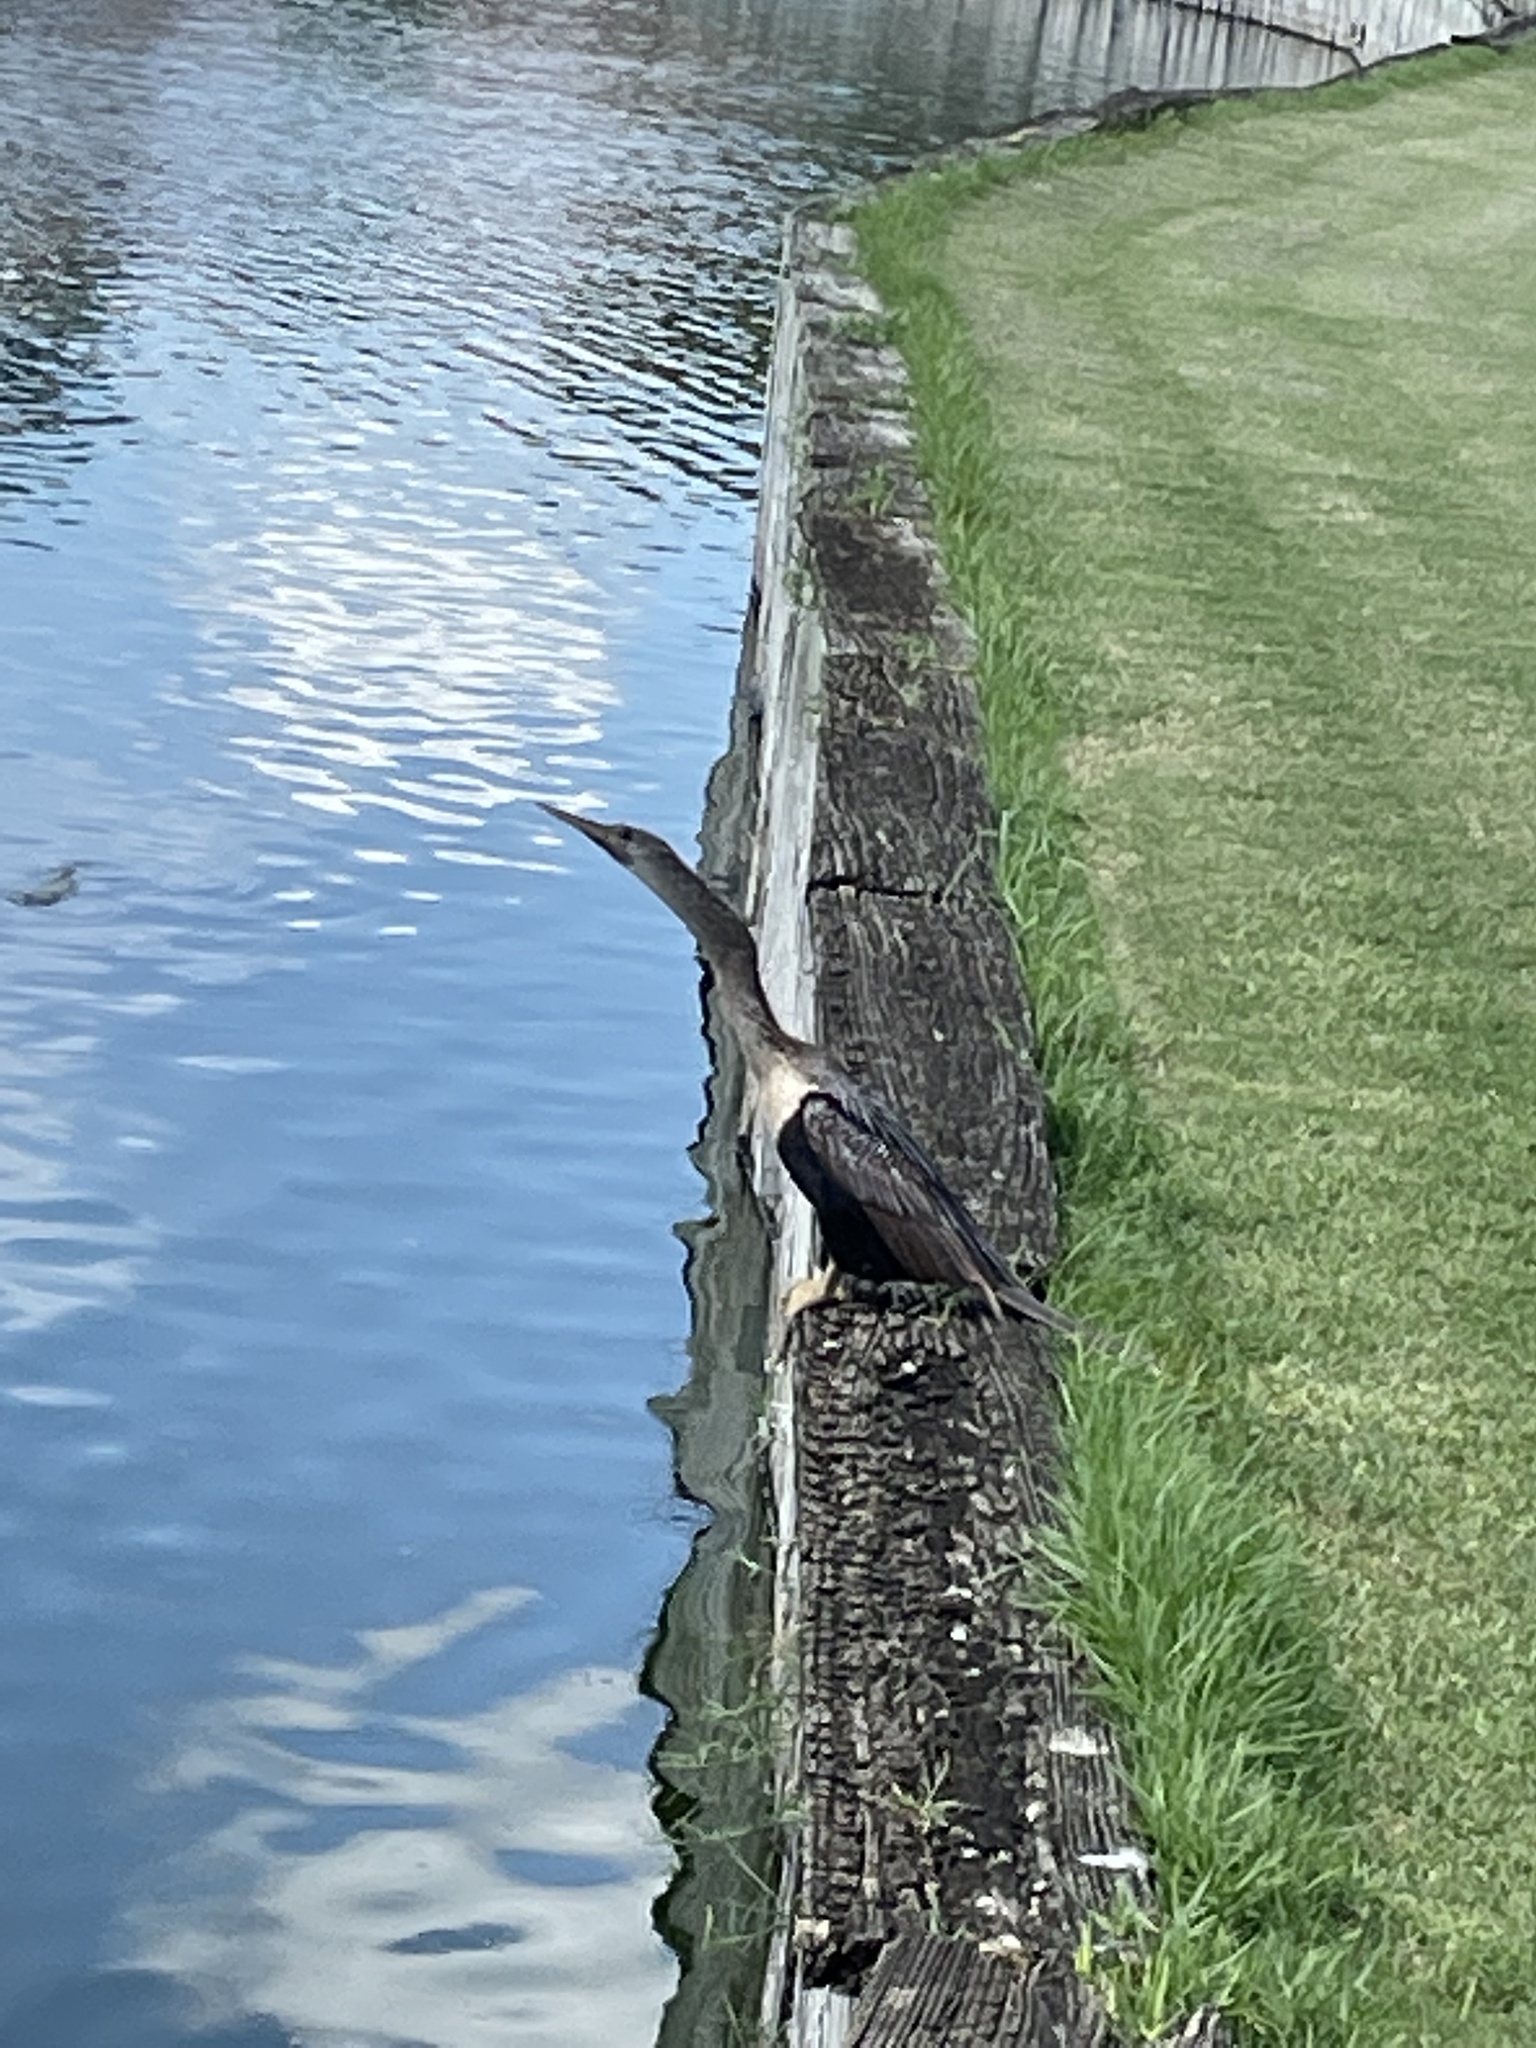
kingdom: Animalia
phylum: Chordata
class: Aves
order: Suliformes
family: Anhingidae
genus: Anhinga
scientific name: Anhinga anhinga
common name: Anhinga
